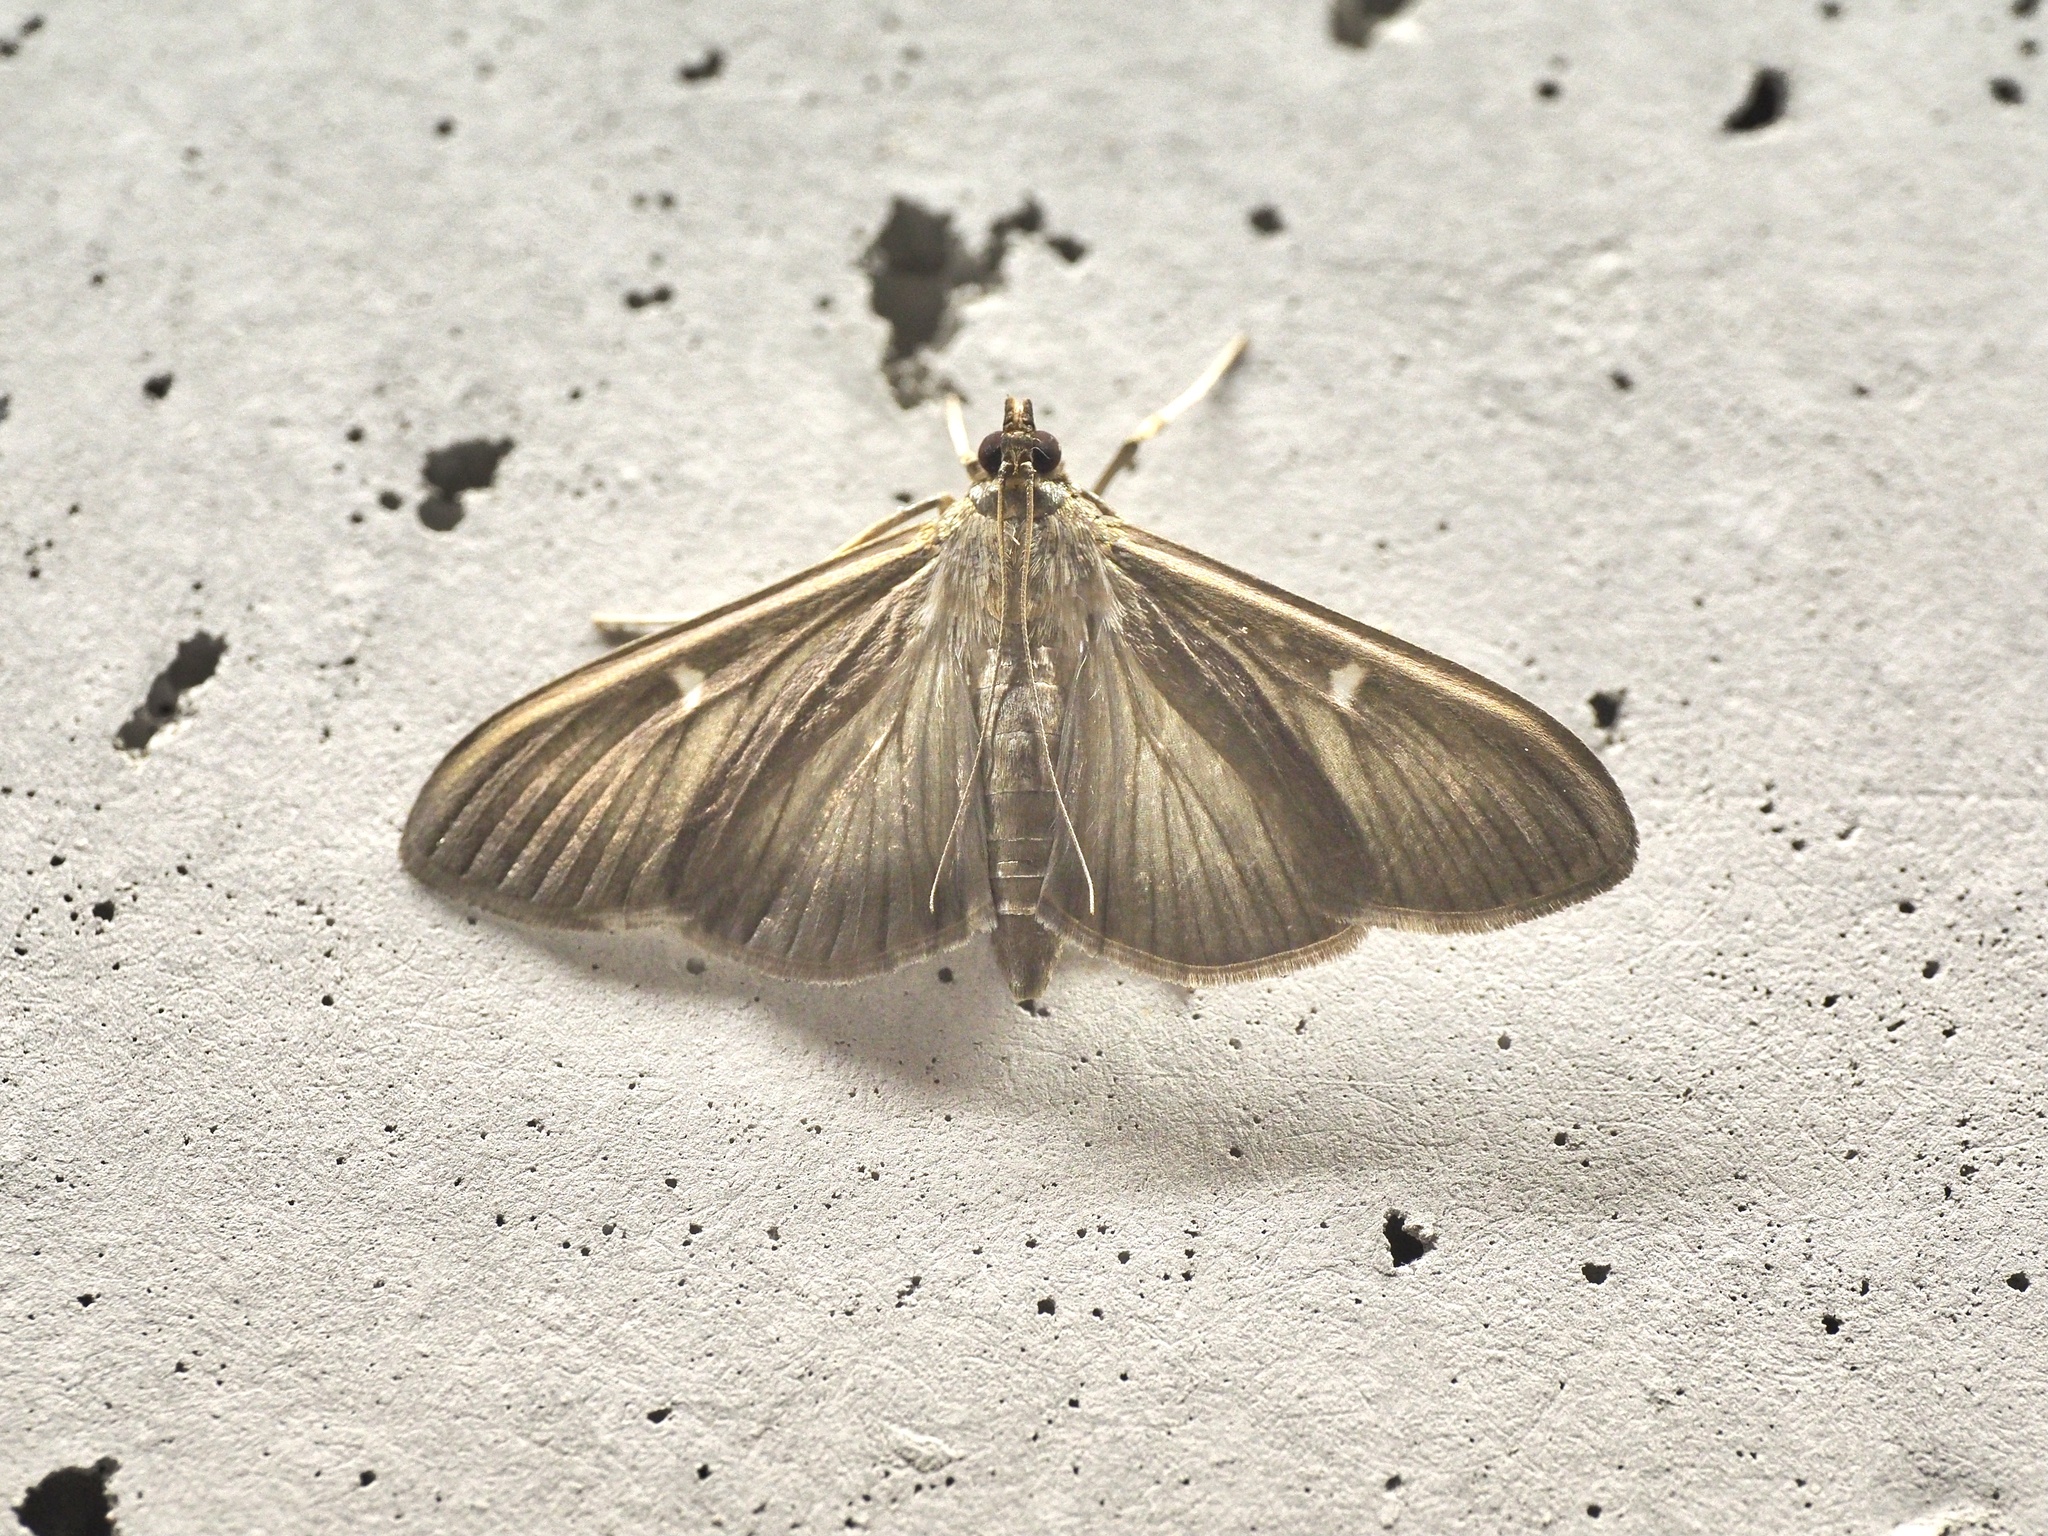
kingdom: Animalia
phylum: Arthropoda
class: Insecta
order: Lepidoptera
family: Crambidae
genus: Cydalima
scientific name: Cydalima perspectalis
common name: Box tree moth
